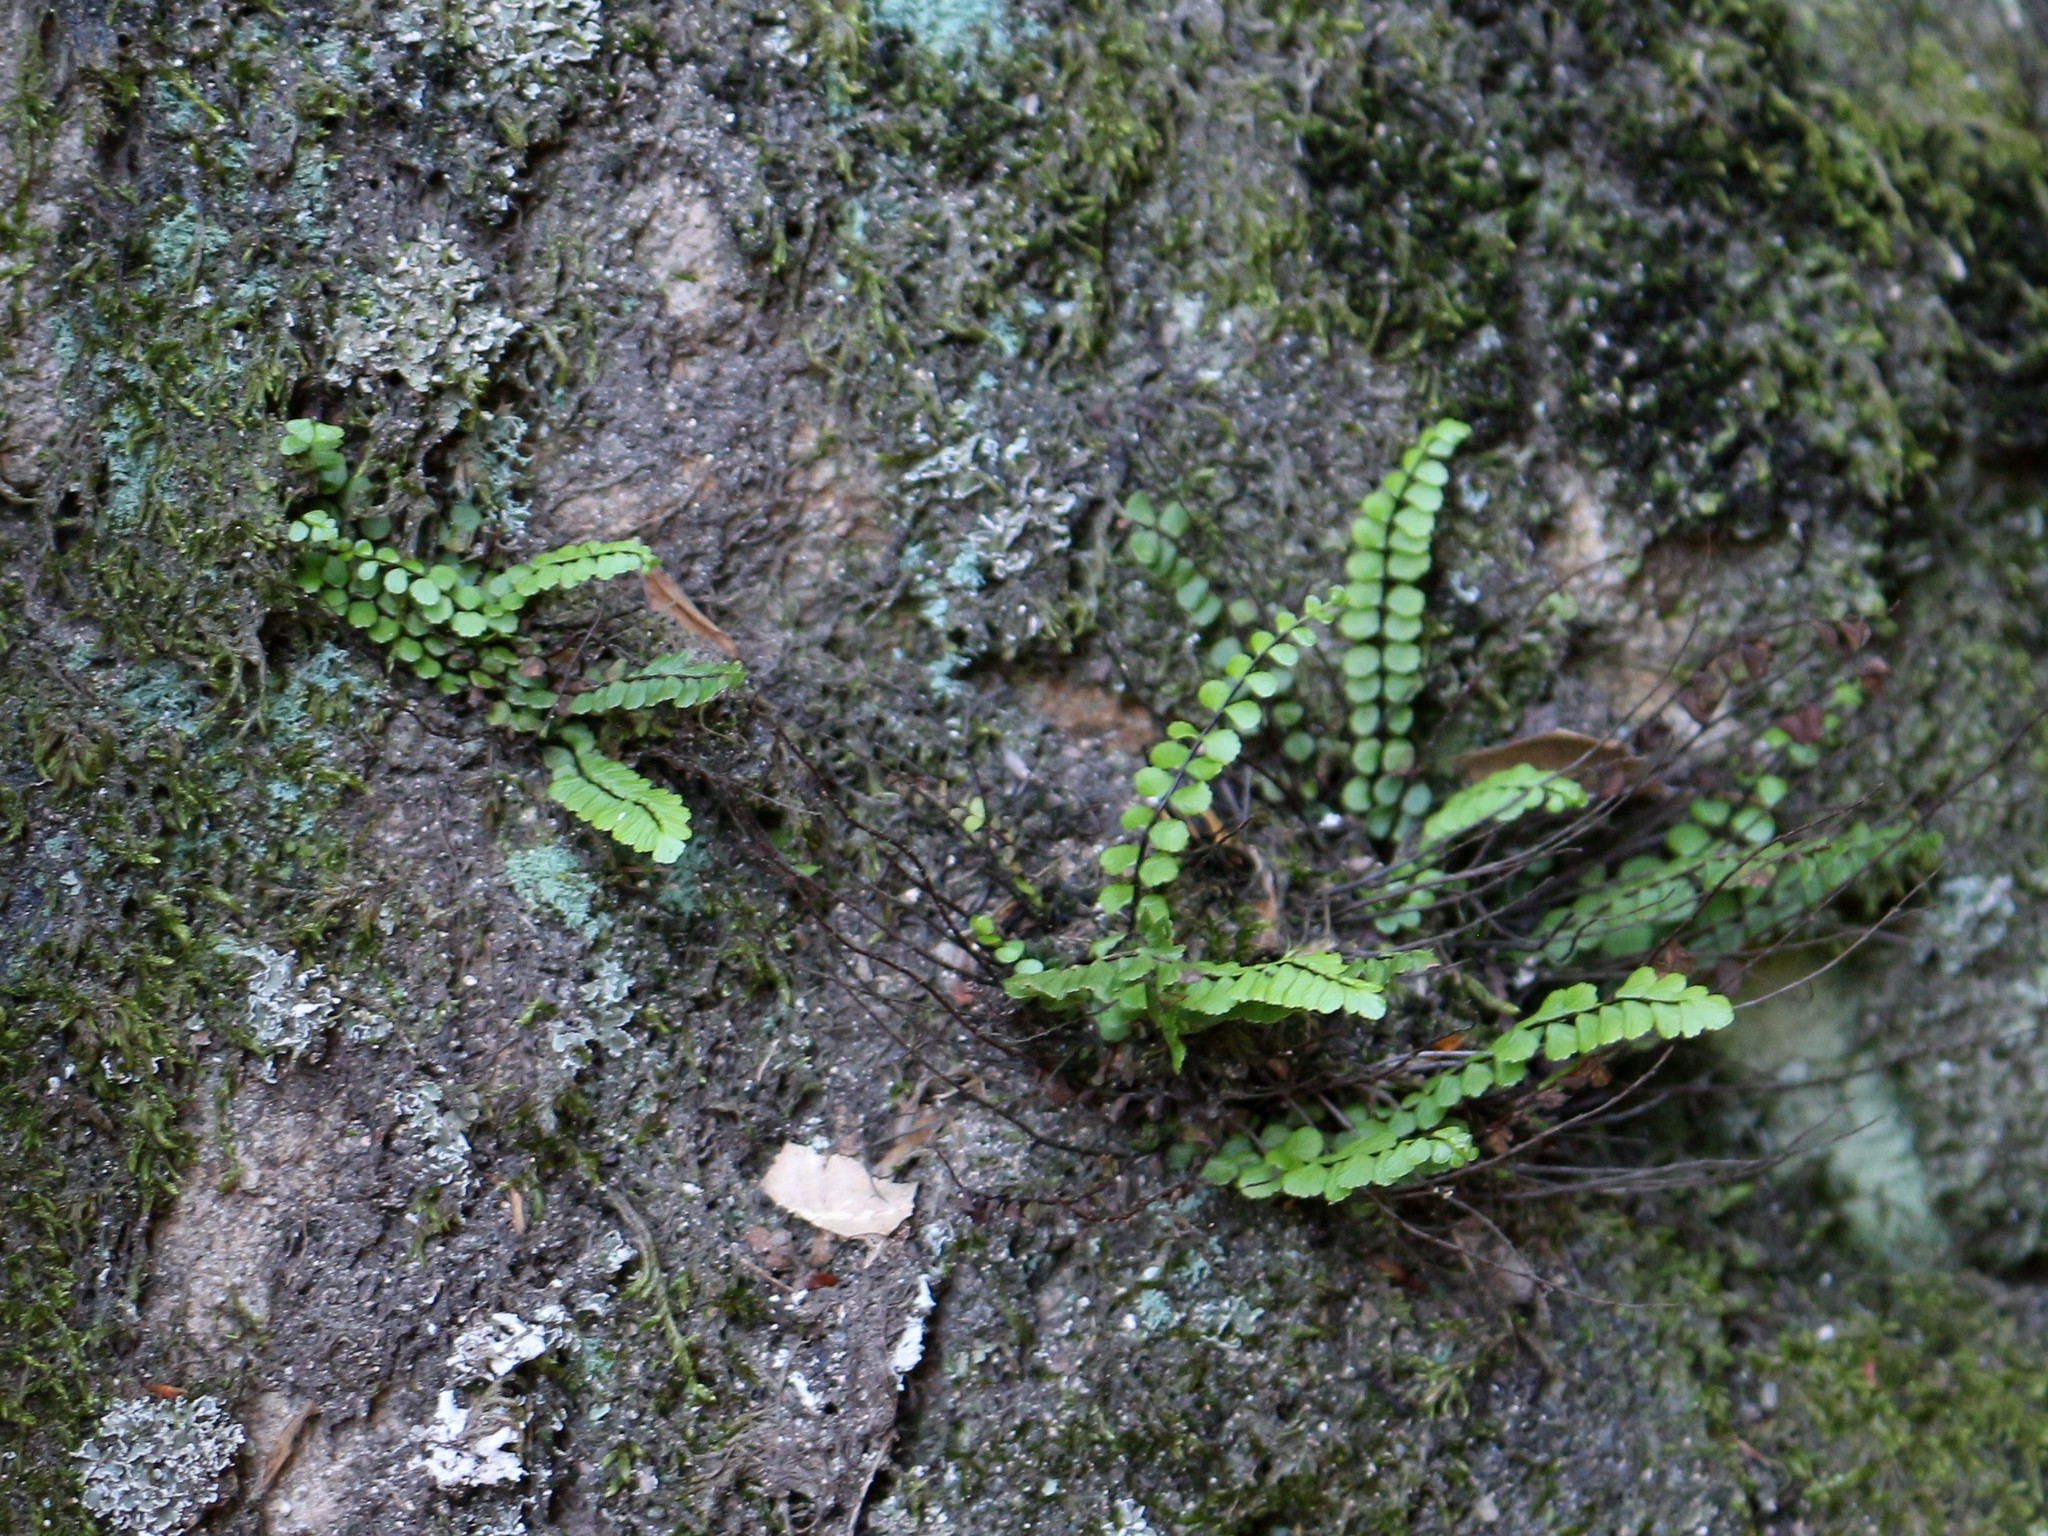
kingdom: Plantae
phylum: Tracheophyta
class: Polypodiopsida
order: Polypodiales
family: Aspleniaceae
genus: Asplenium
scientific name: Asplenium trichomanes
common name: Maidenhair spleenwort
